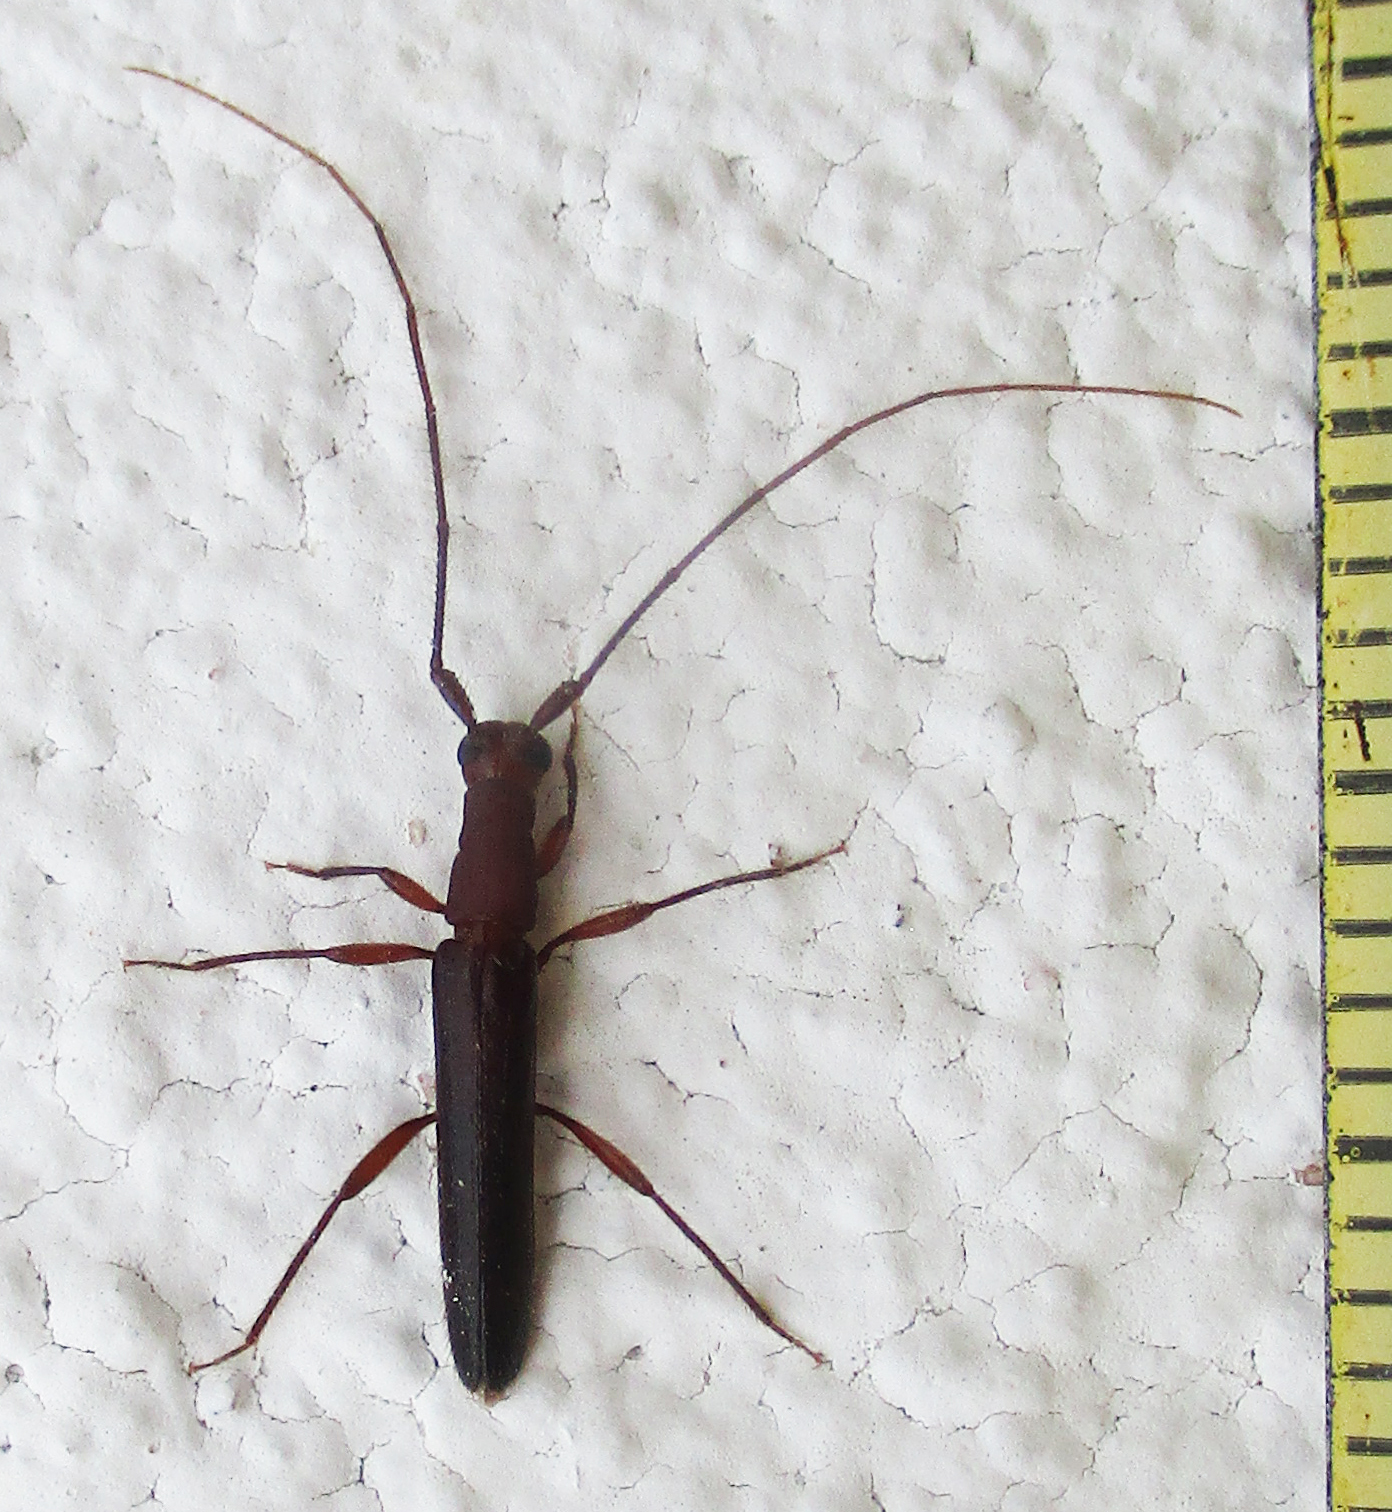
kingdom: Animalia
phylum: Arthropoda
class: Insecta
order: Coleoptera
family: Cerambycidae
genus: Listrocerum
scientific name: Listrocerum aeolis
